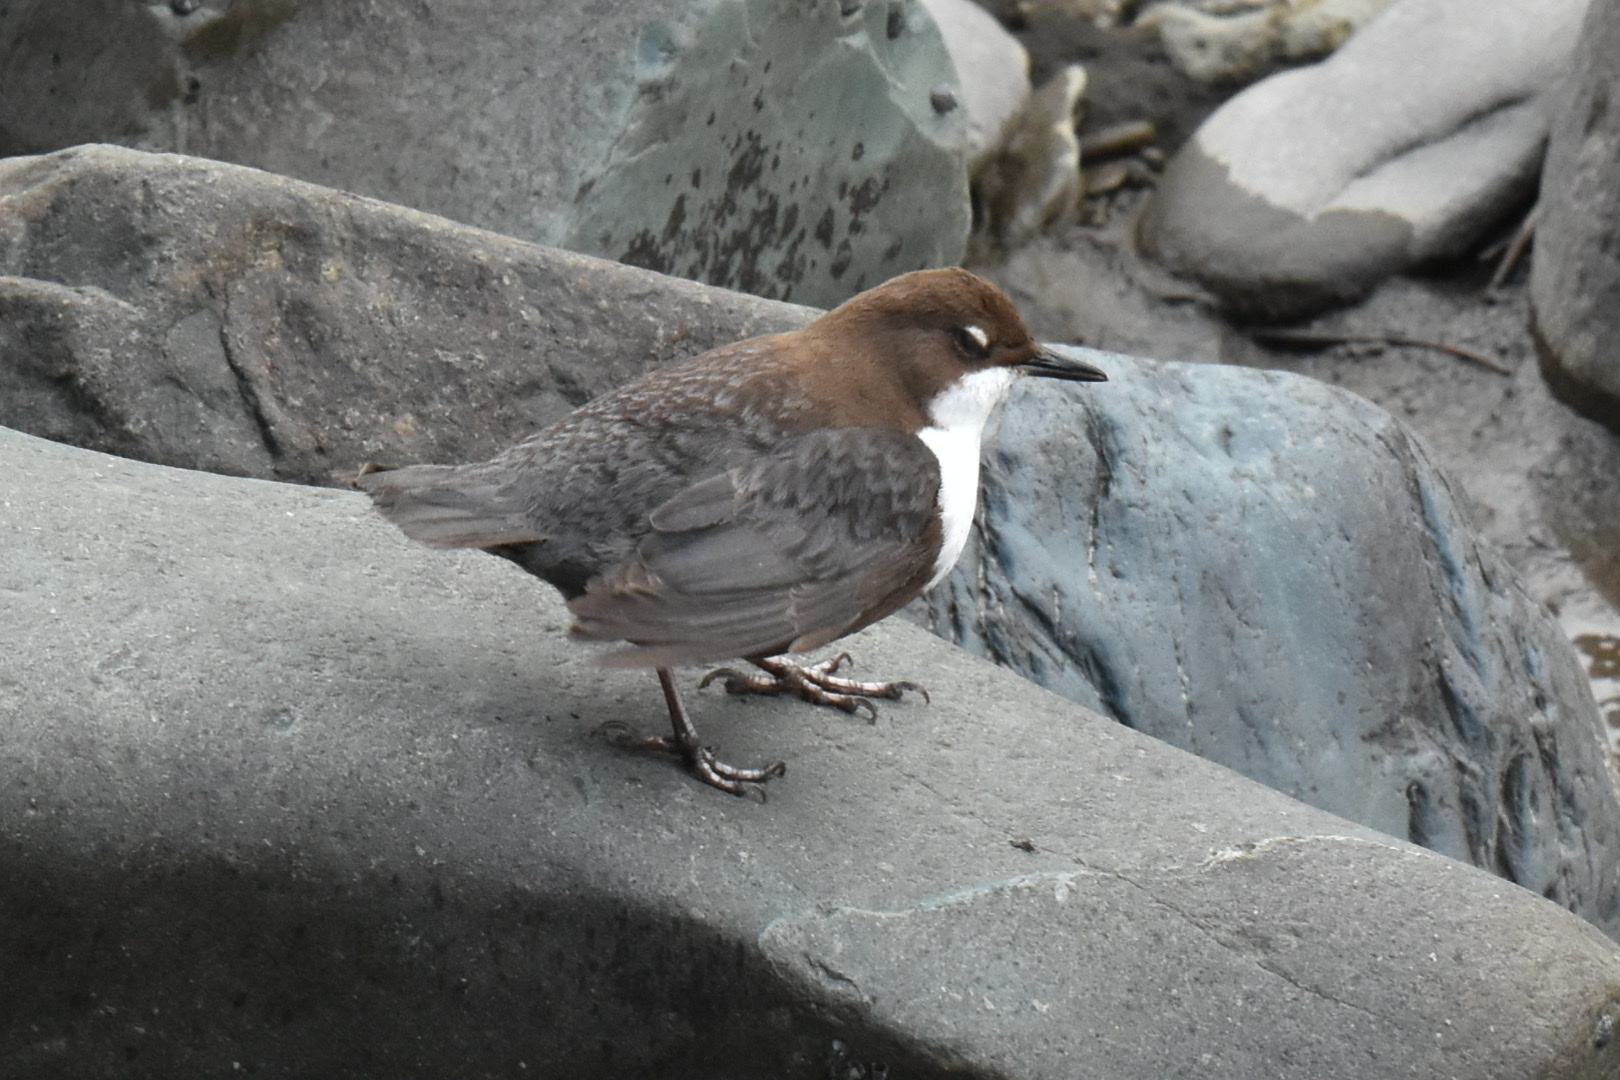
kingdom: Animalia
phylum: Chordata
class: Aves
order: Passeriformes
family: Cinclidae
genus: Cinclus
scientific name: Cinclus cinclus
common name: White-throated dipper
